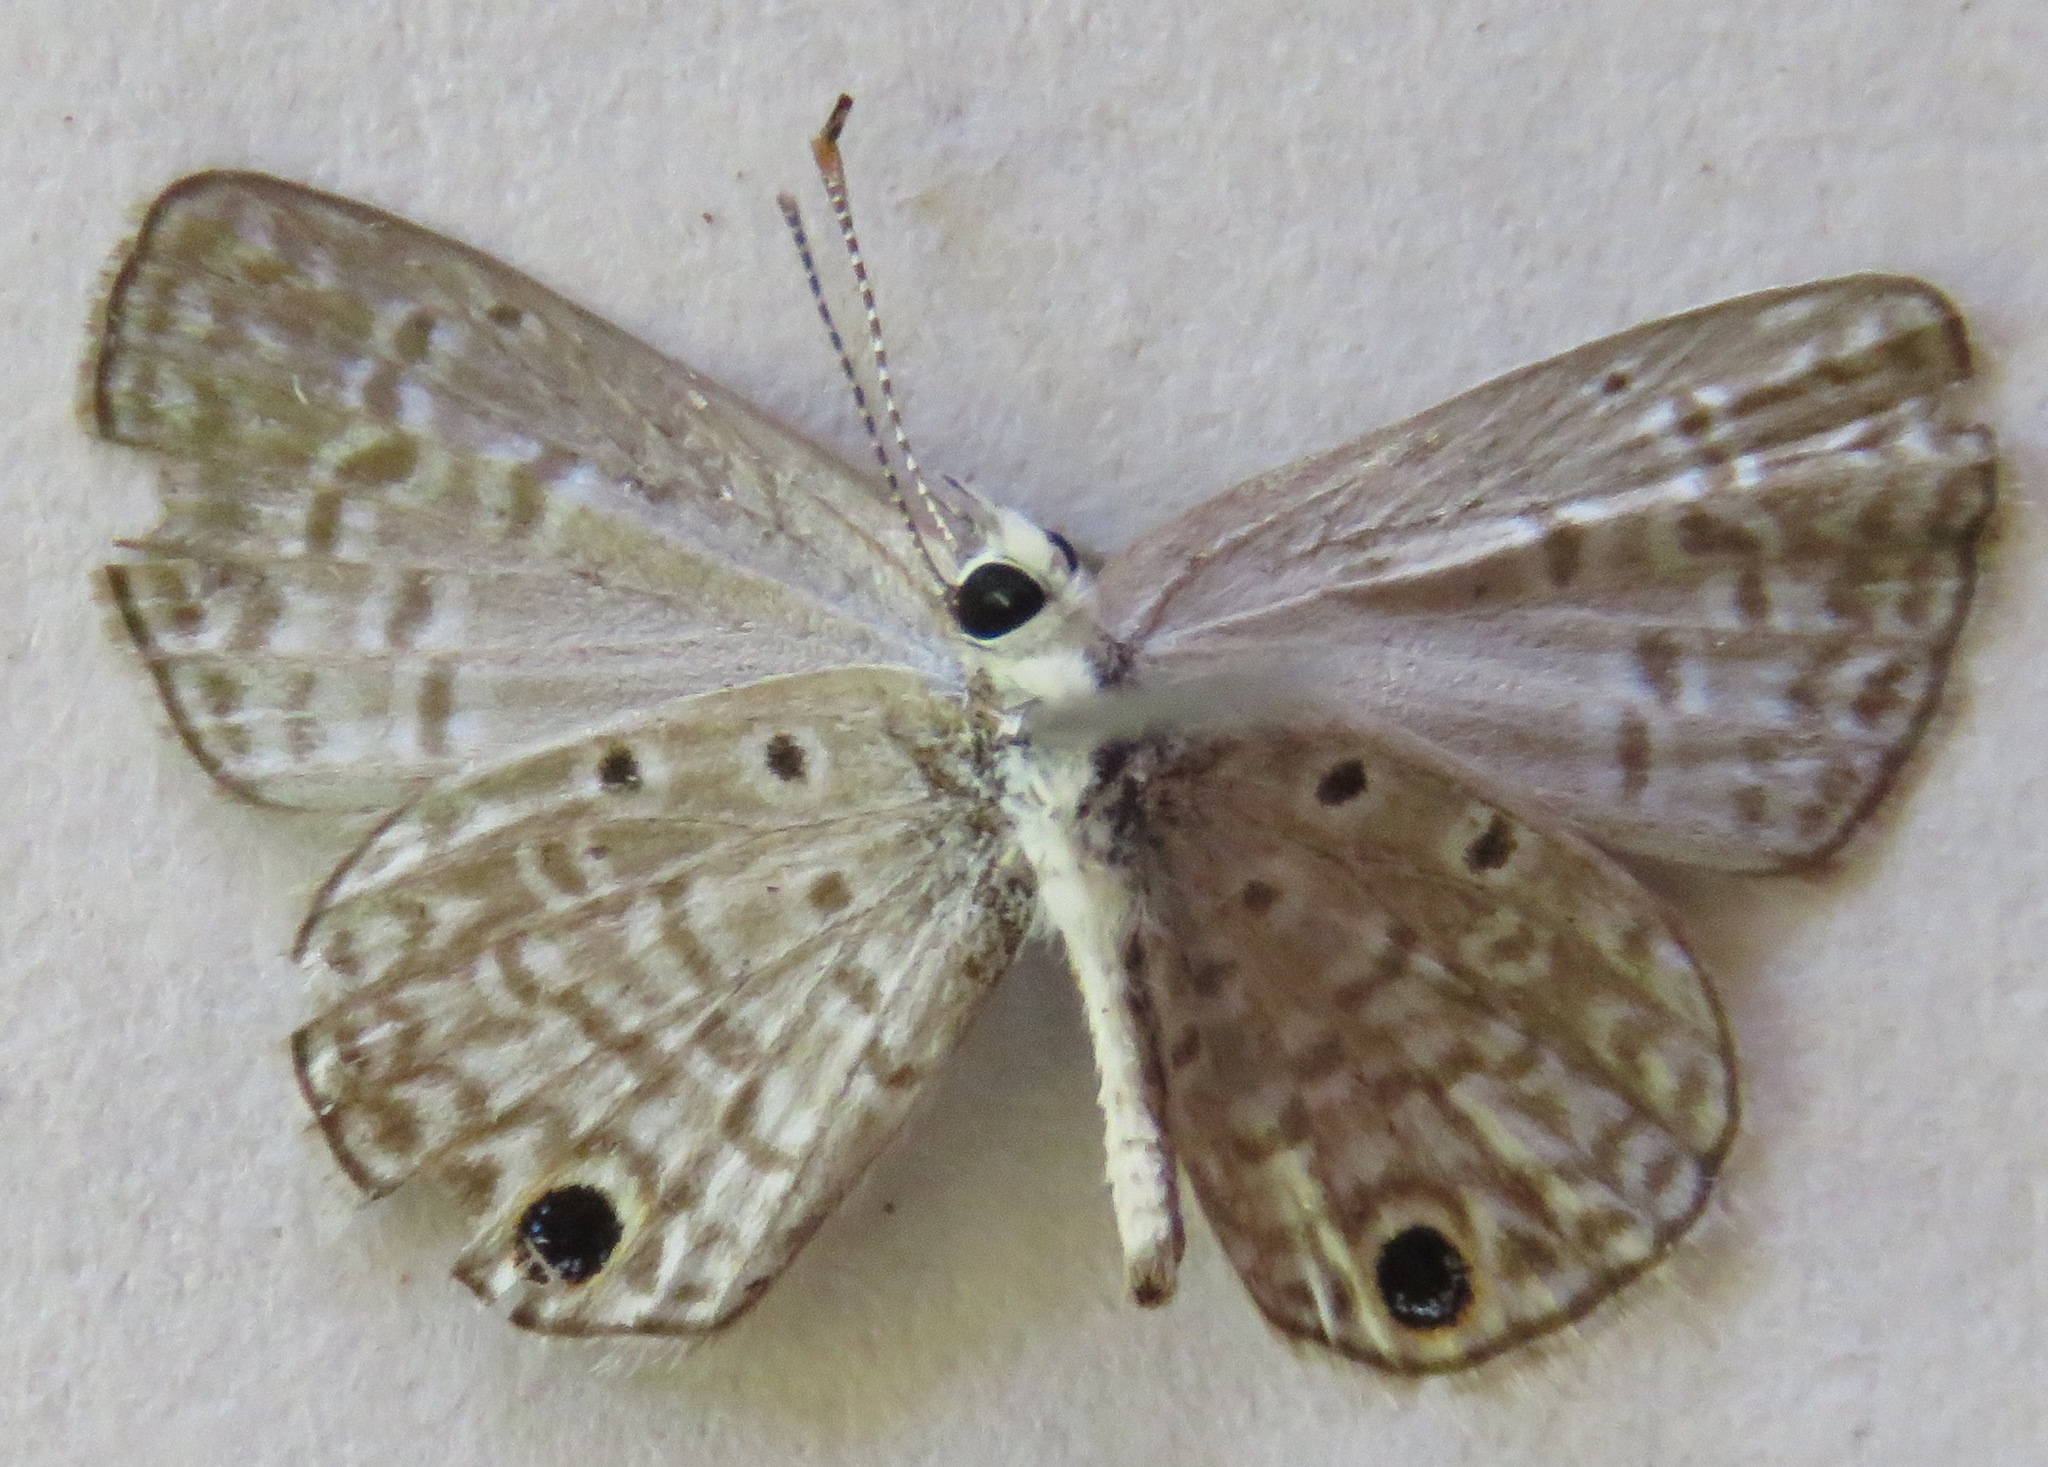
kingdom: Animalia
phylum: Arthropoda
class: Insecta
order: Lepidoptera
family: Lycaenidae
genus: Hemiargus
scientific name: Hemiargus
